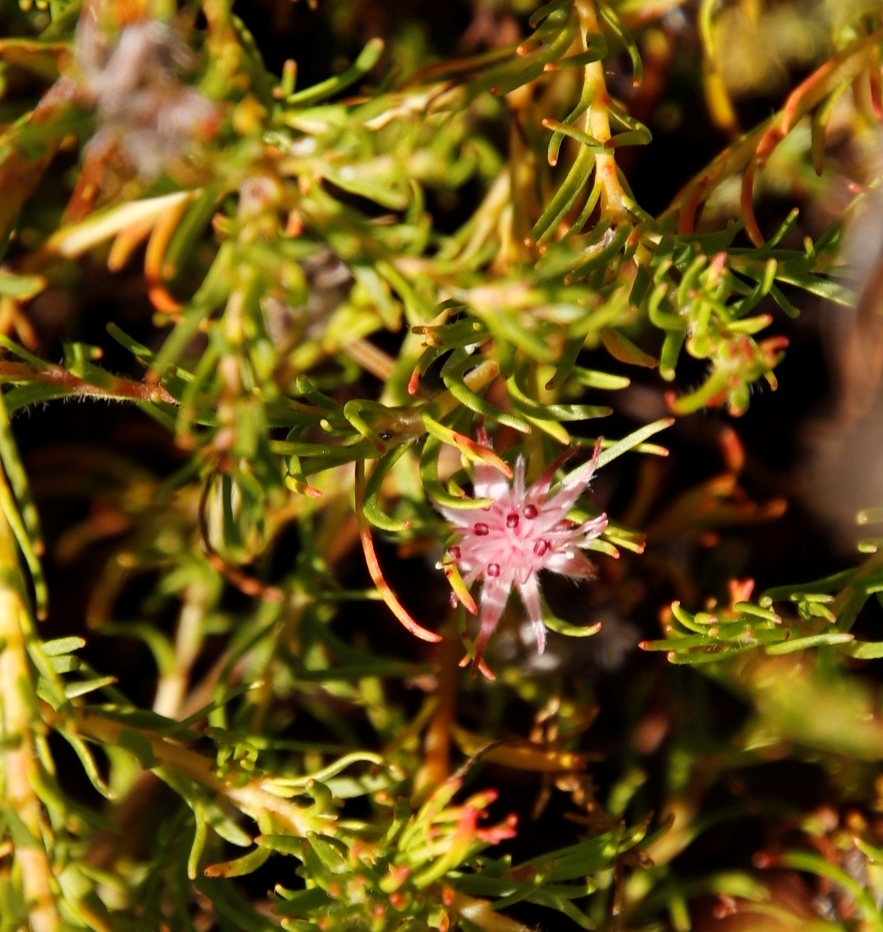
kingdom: Plantae
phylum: Tracheophyta
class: Magnoliopsida
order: Proteales
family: Proteaceae
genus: Diastella
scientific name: Diastella proteoides
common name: Flats silkypuff
